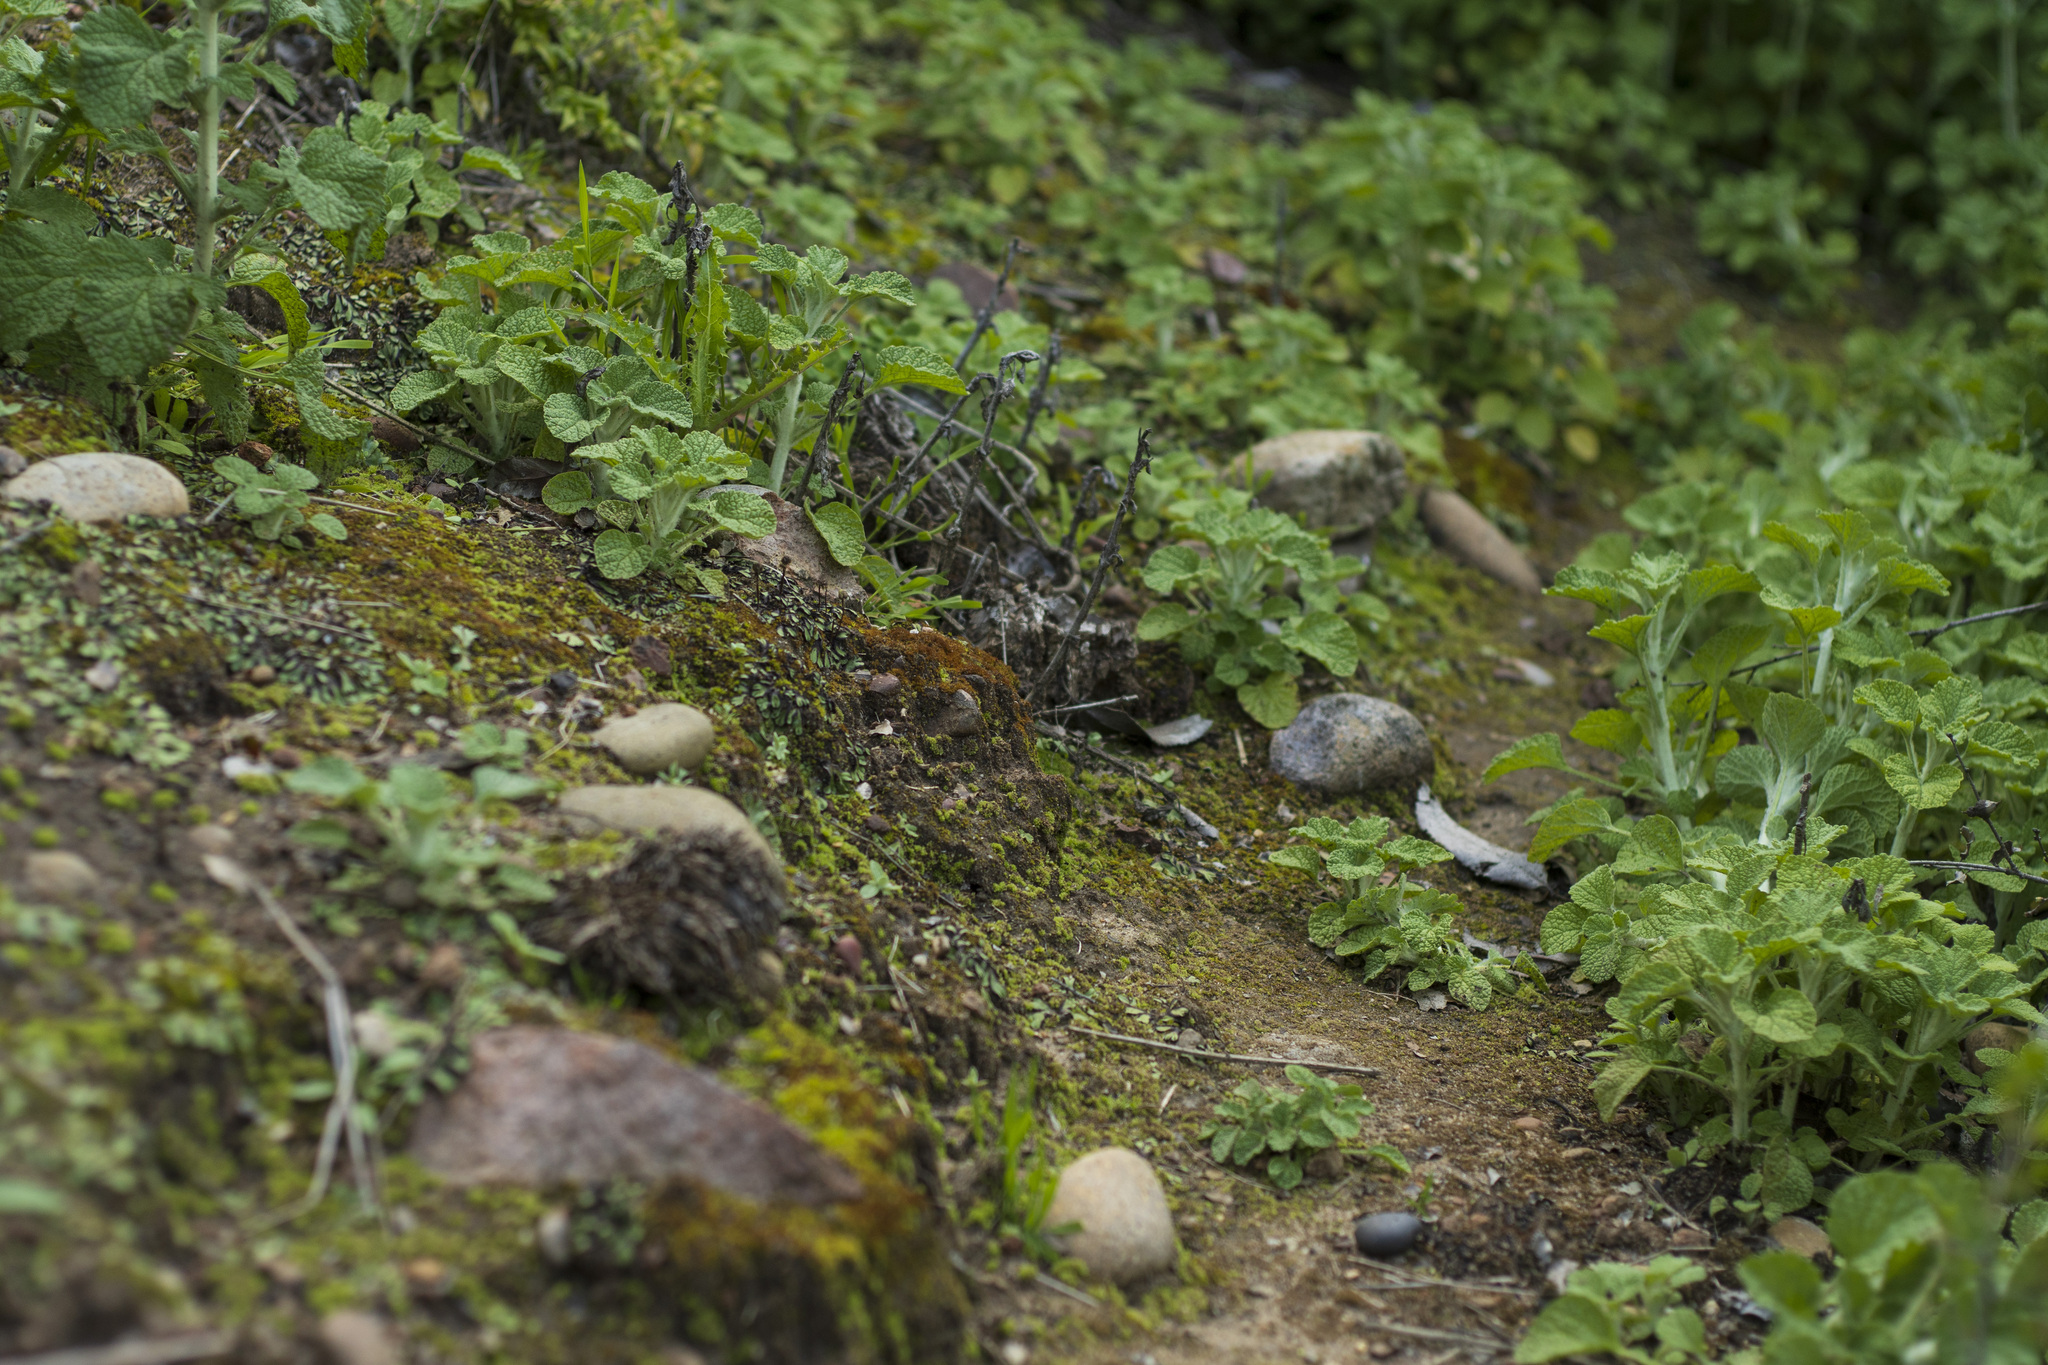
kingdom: Plantae
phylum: Marchantiophyta
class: Marchantiopsida
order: Sphaerocarpales
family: Sphaerocarpaceae
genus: Geothallus
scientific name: Geothallus tuberosus
